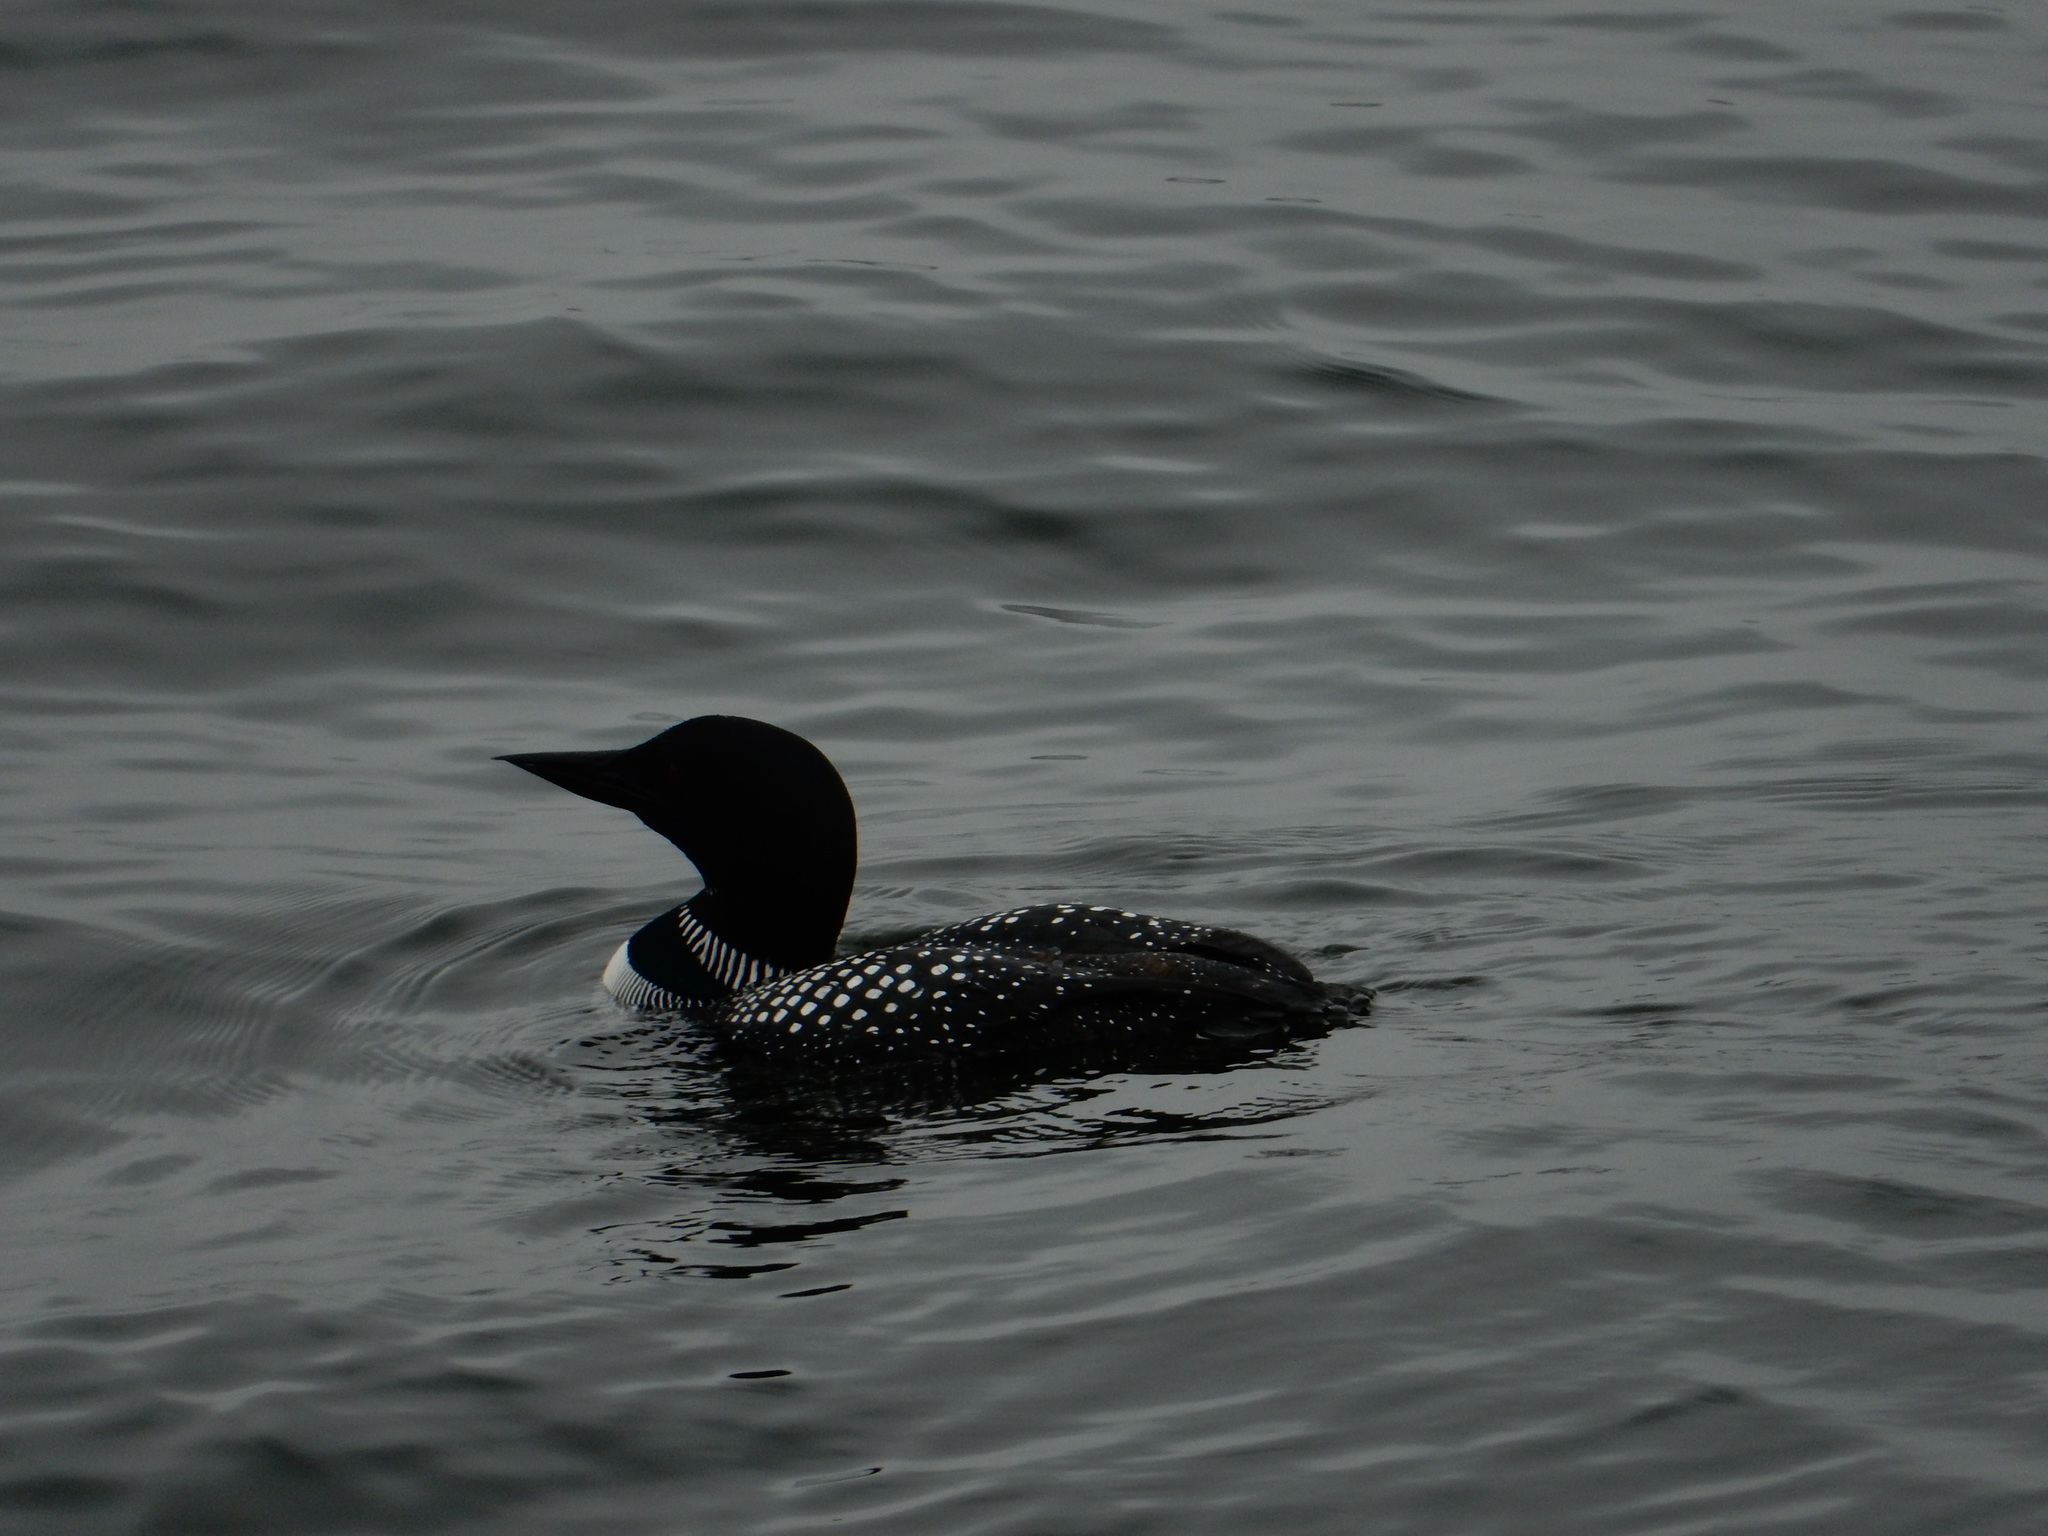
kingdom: Animalia
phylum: Chordata
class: Aves
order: Gaviiformes
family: Gaviidae
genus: Gavia
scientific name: Gavia immer
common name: Common loon
